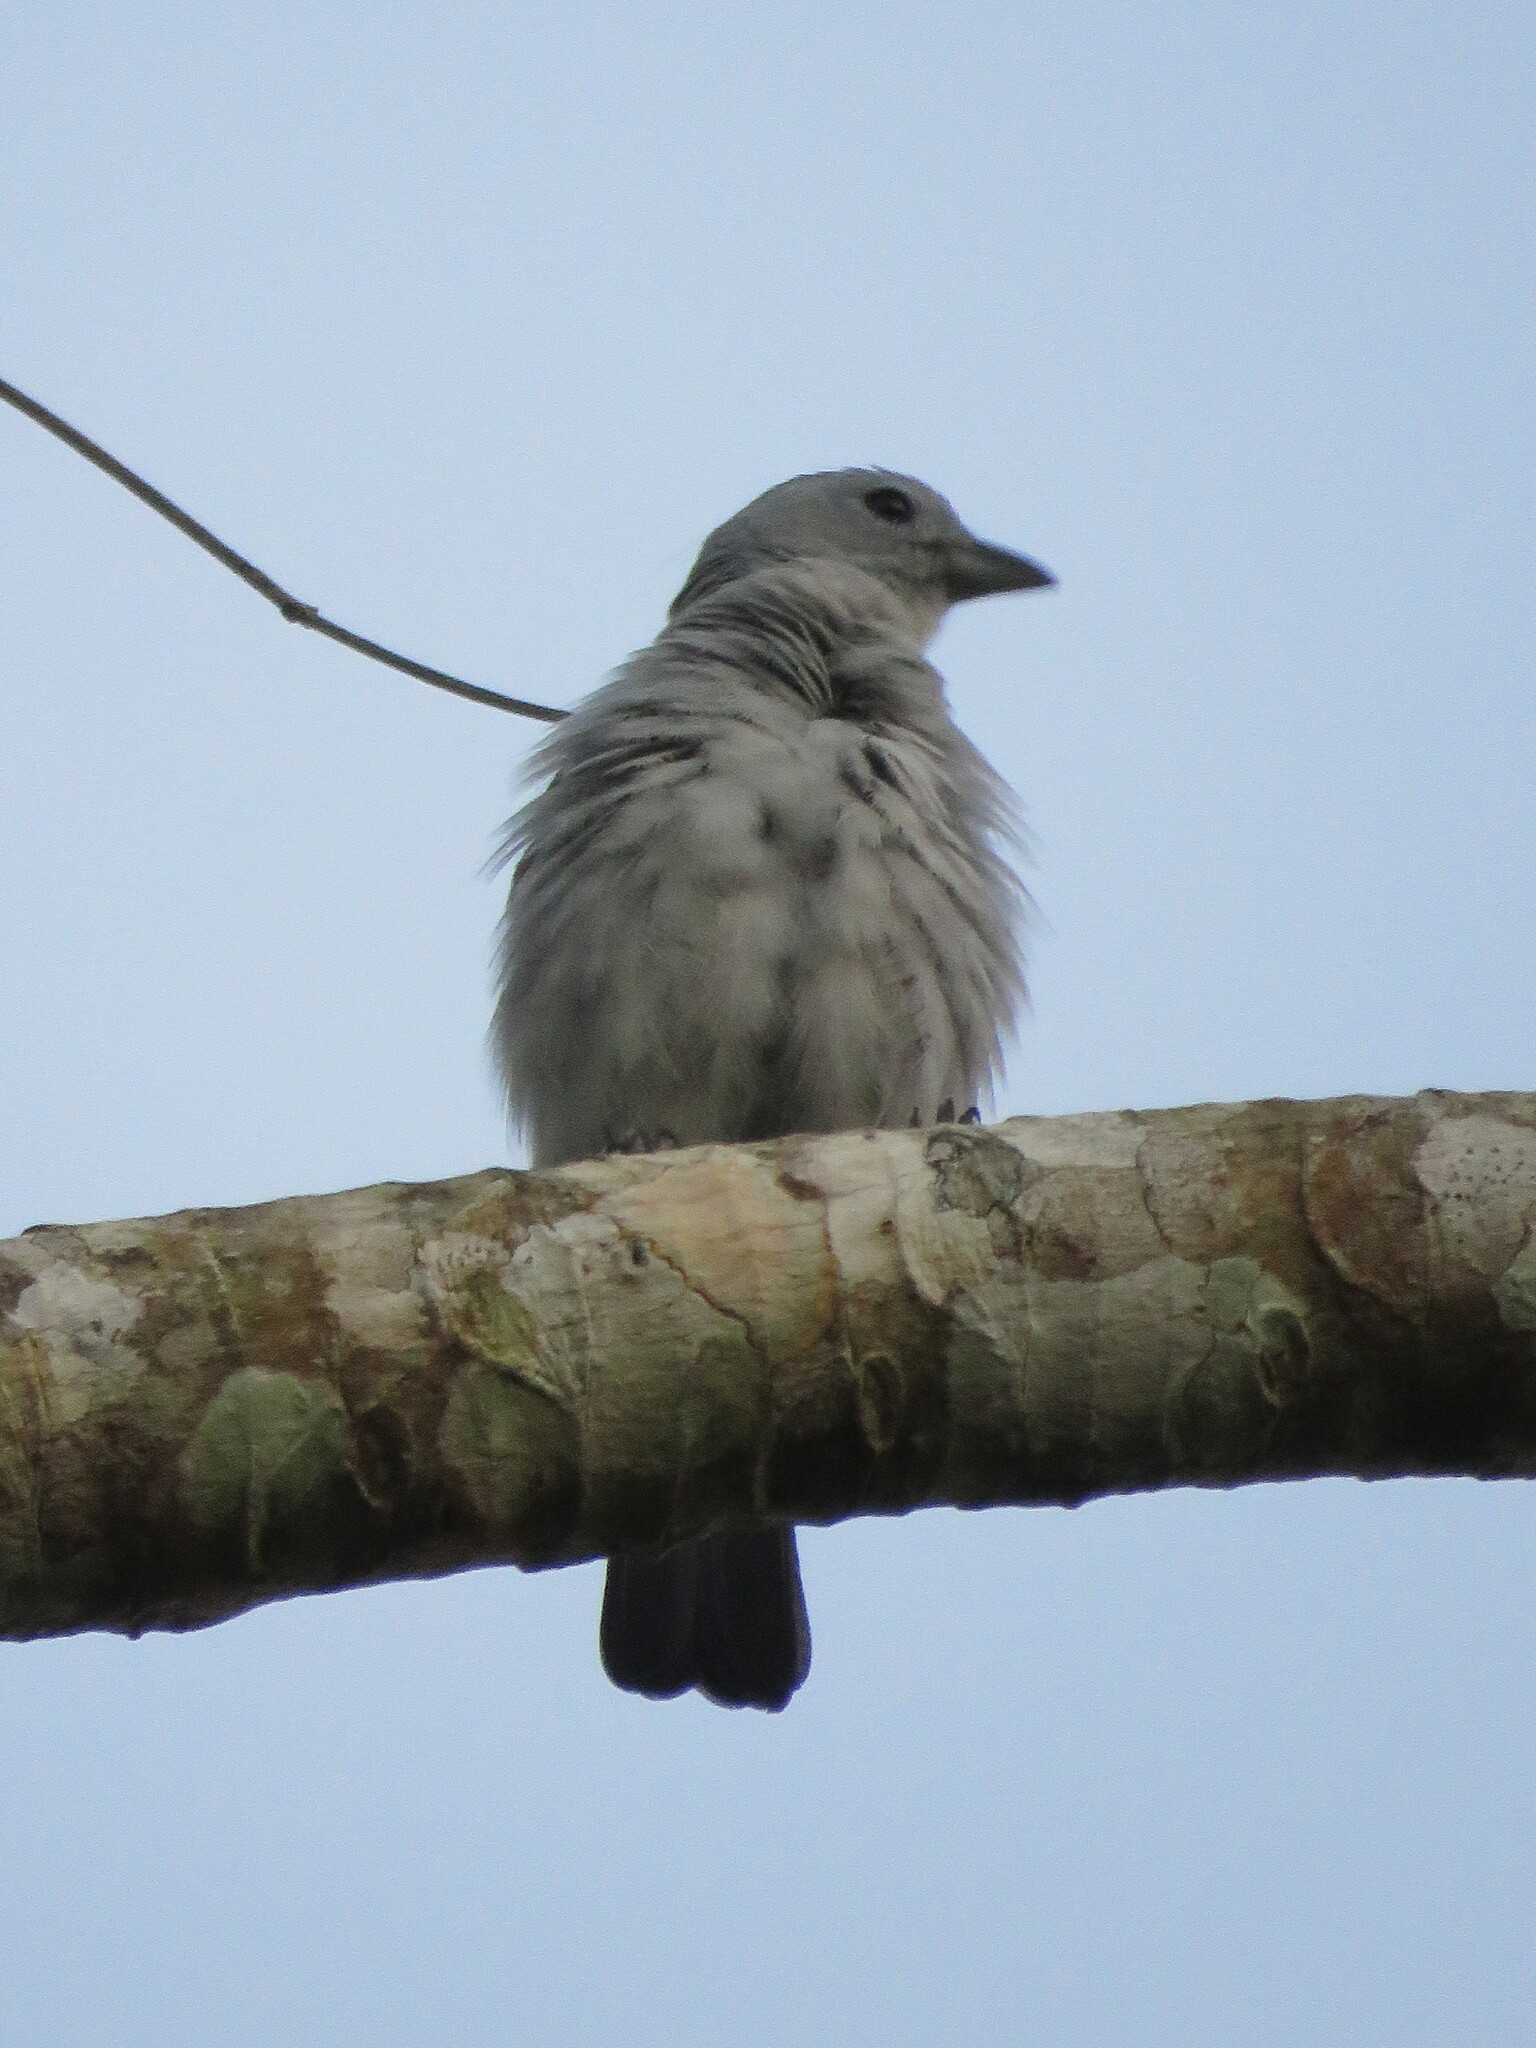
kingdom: Animalia
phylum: Chordata
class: Aves
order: Passeriformes
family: Thraupidae
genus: Thraupis
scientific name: Thraupis episcopus
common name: Blue-grey tanager
